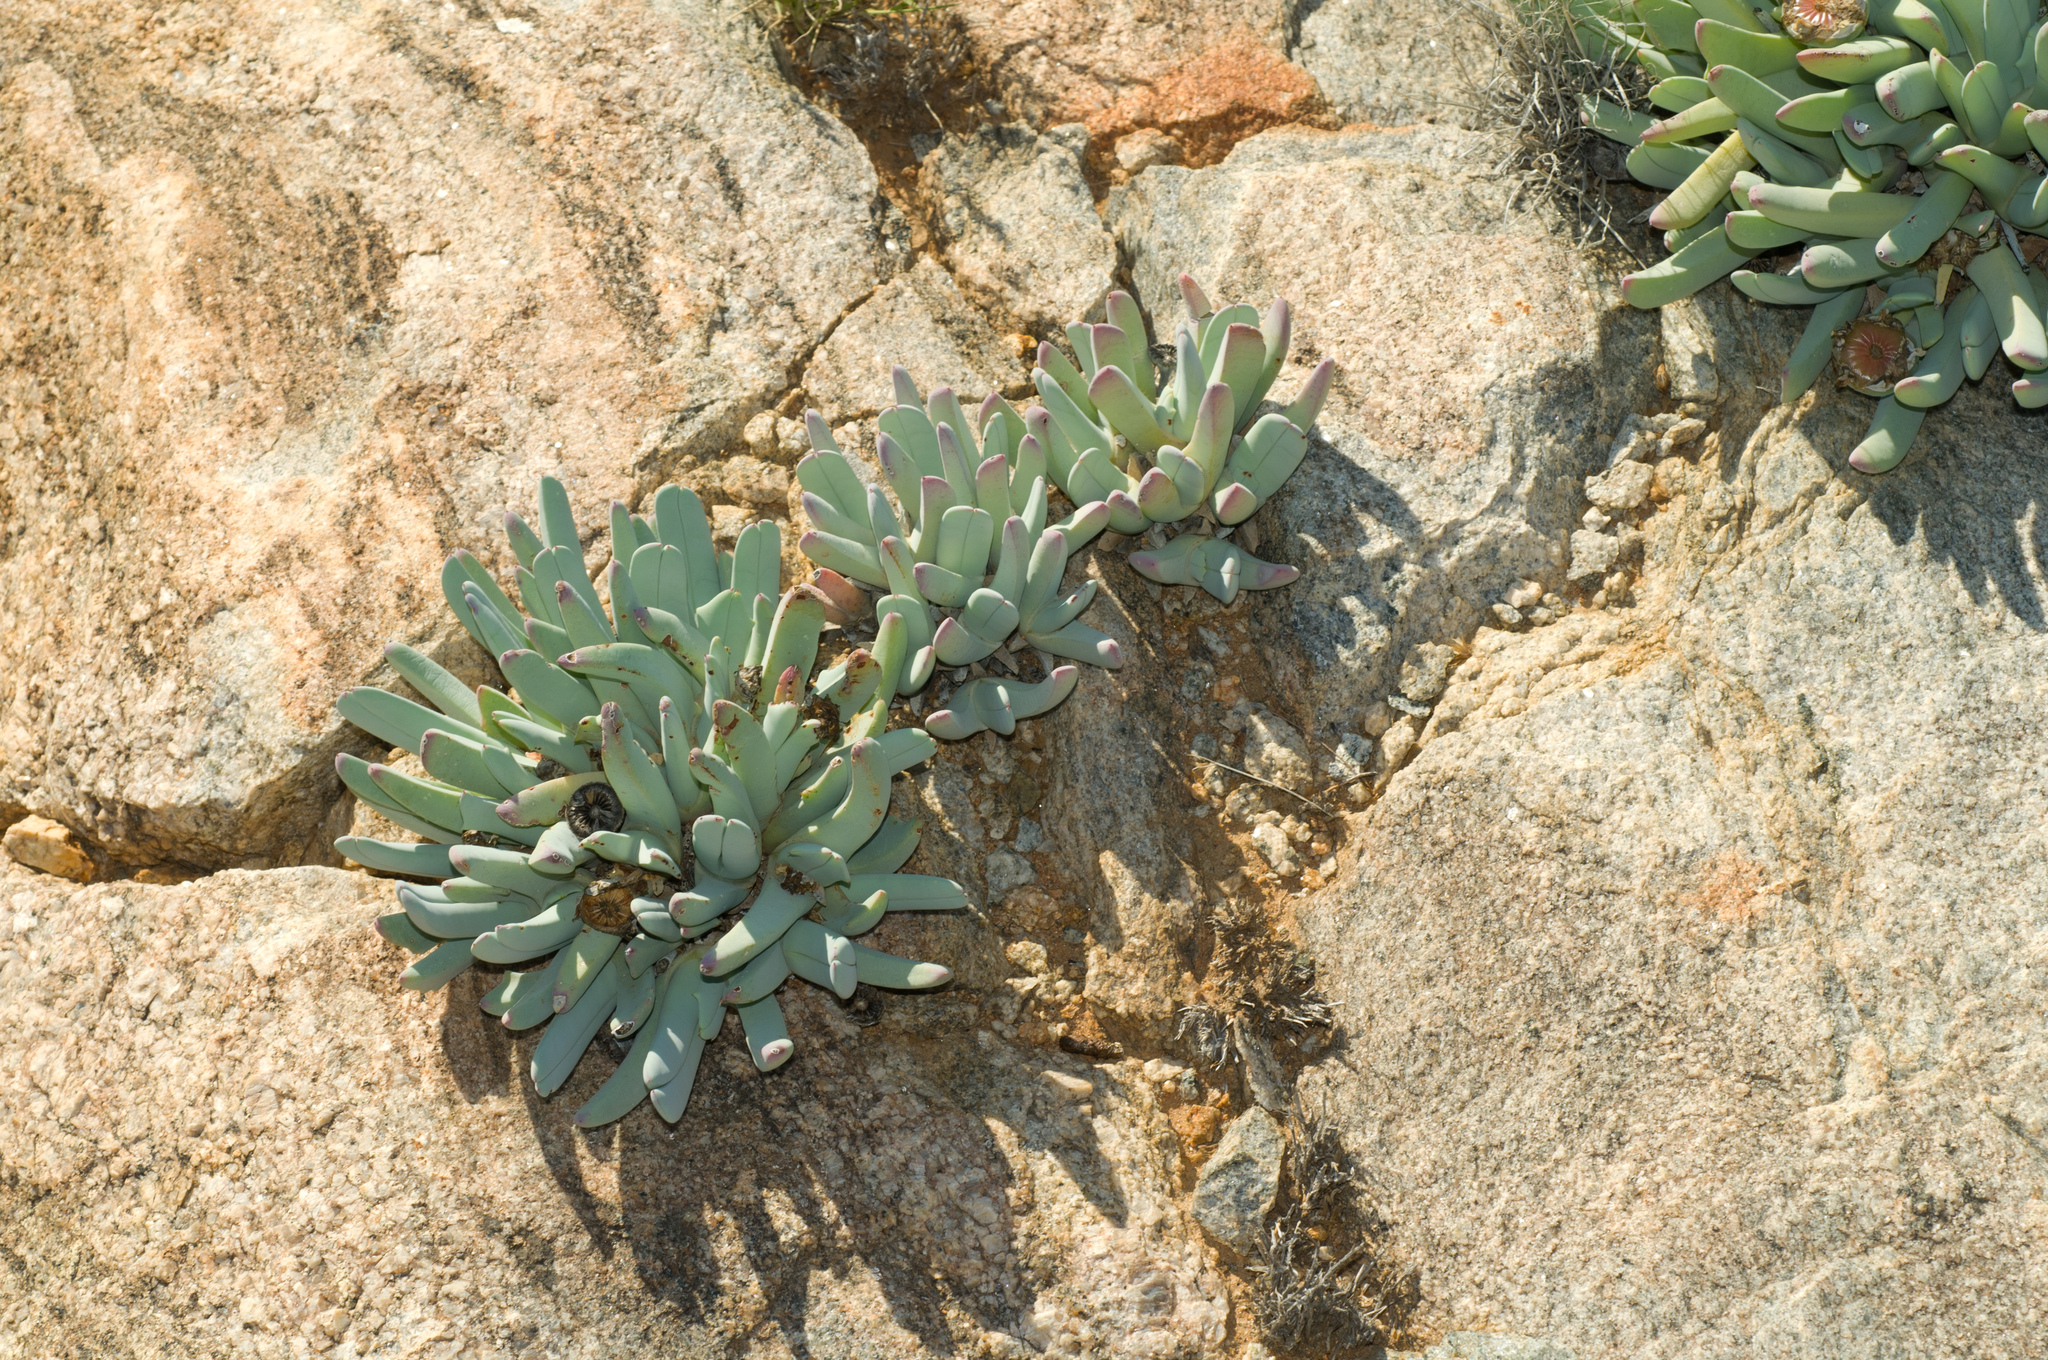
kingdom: Plantae
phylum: Tracheophyta
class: Magnoliopsida
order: Caryophyllales
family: Aizoaceae
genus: Cheiridopsis
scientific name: Cheiridopsis denticulata
